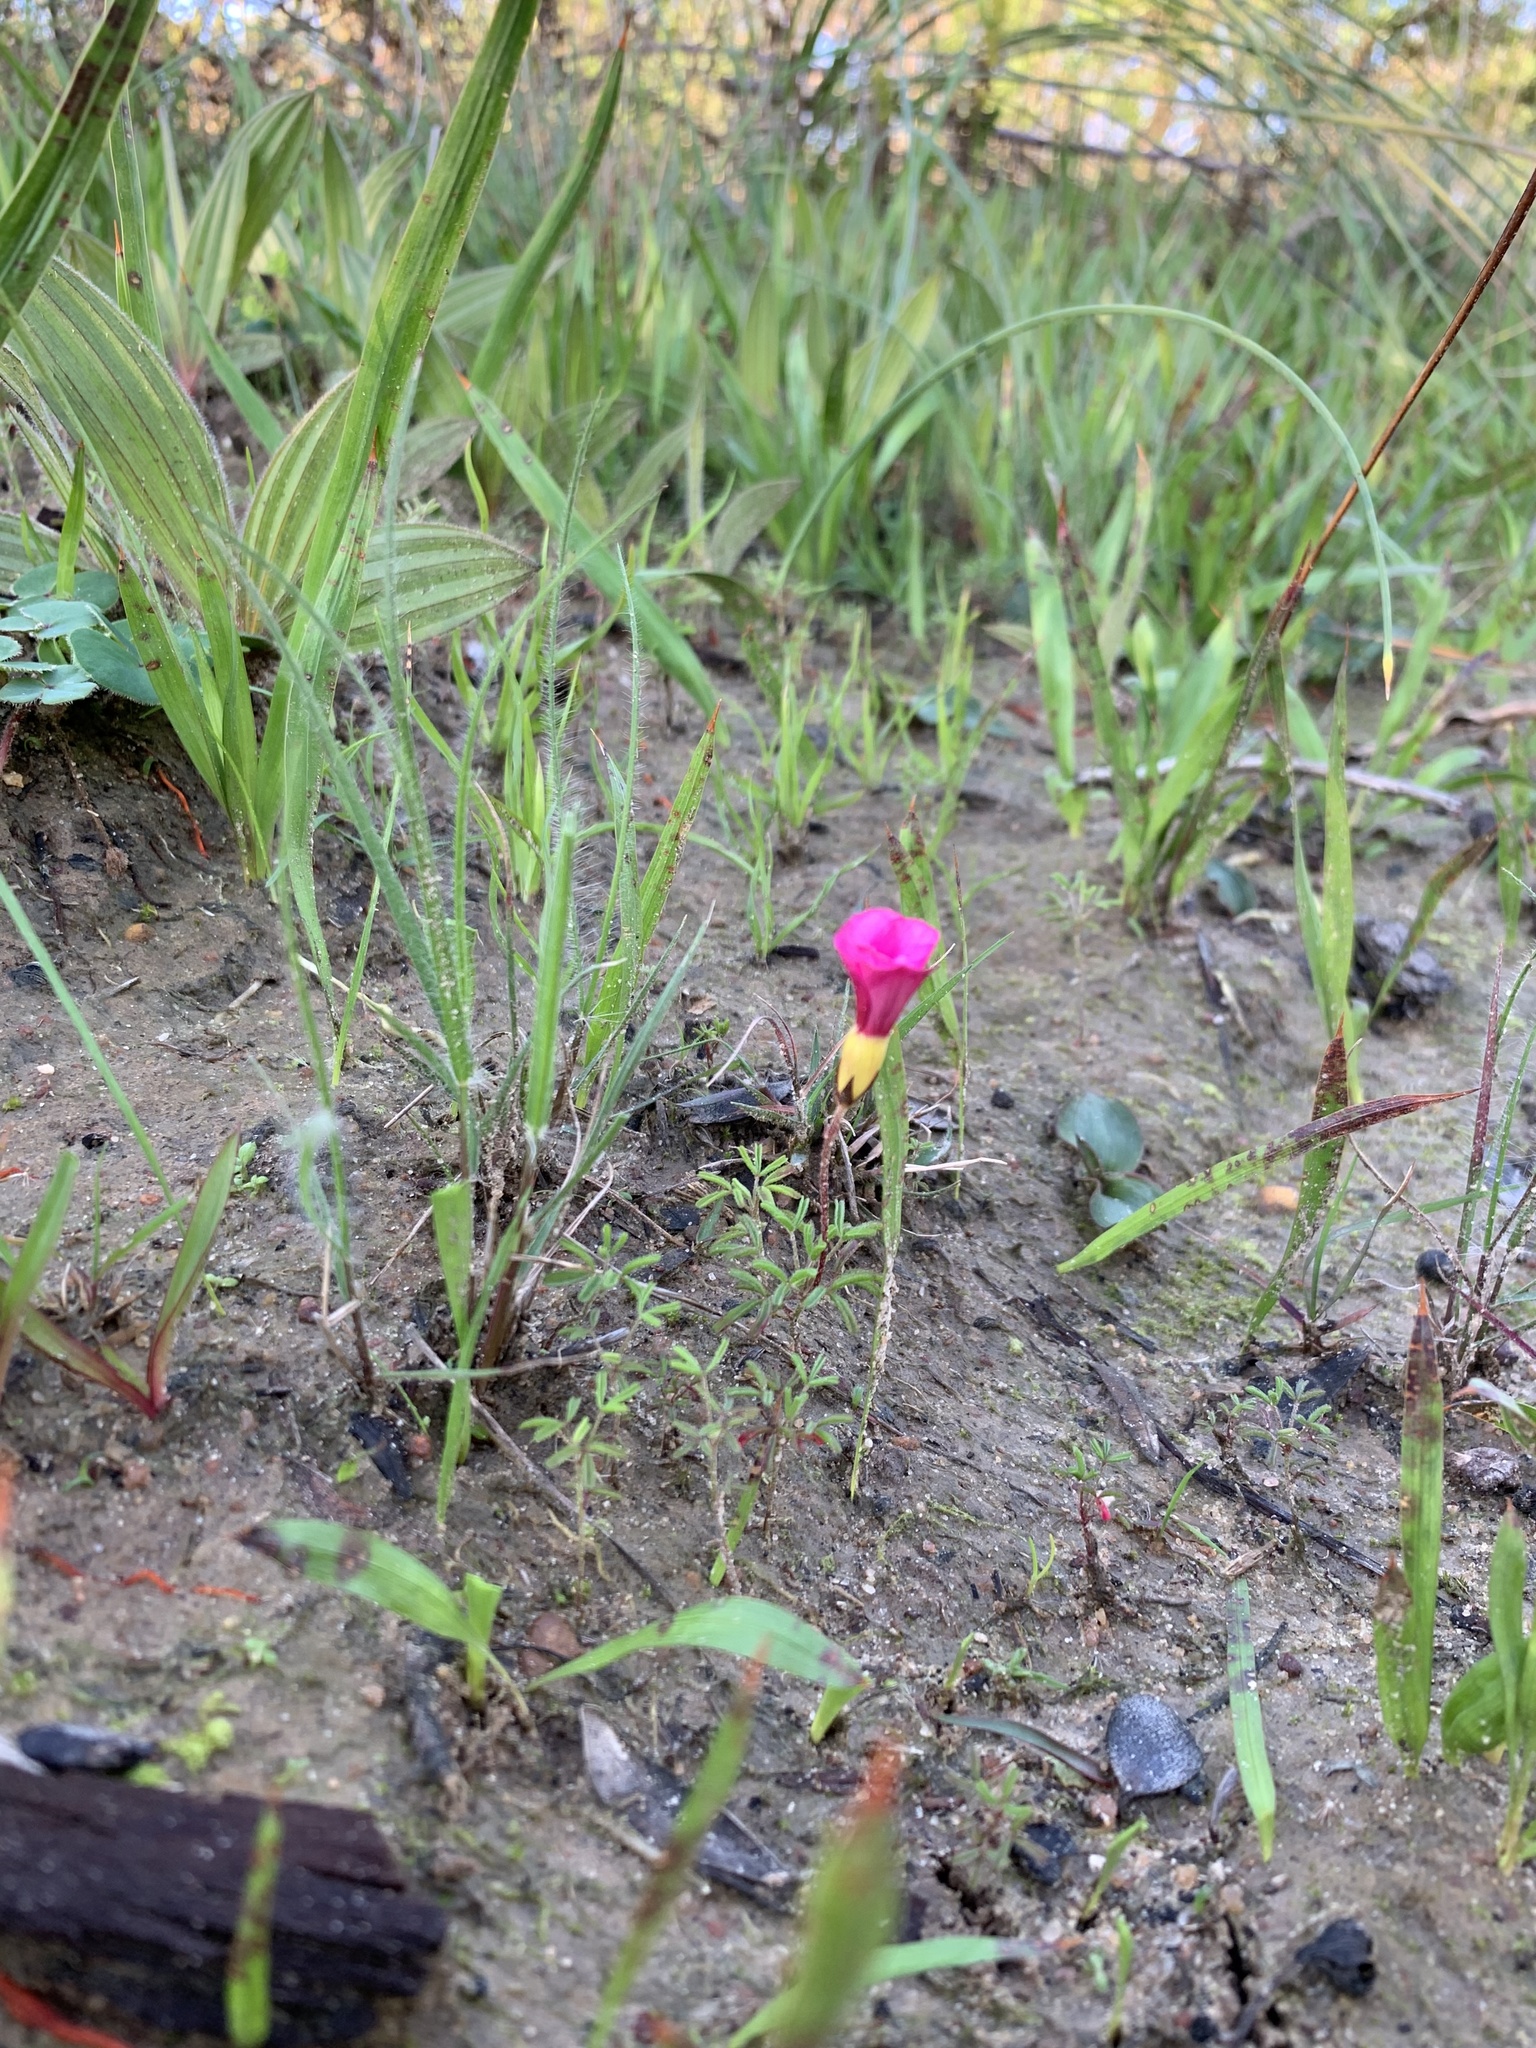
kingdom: Plantae
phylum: Tracheophyta
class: Magnoliopsida
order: Oxalidales
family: Oxalidaceae
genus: Oxalis
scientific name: Oxalis glabra
